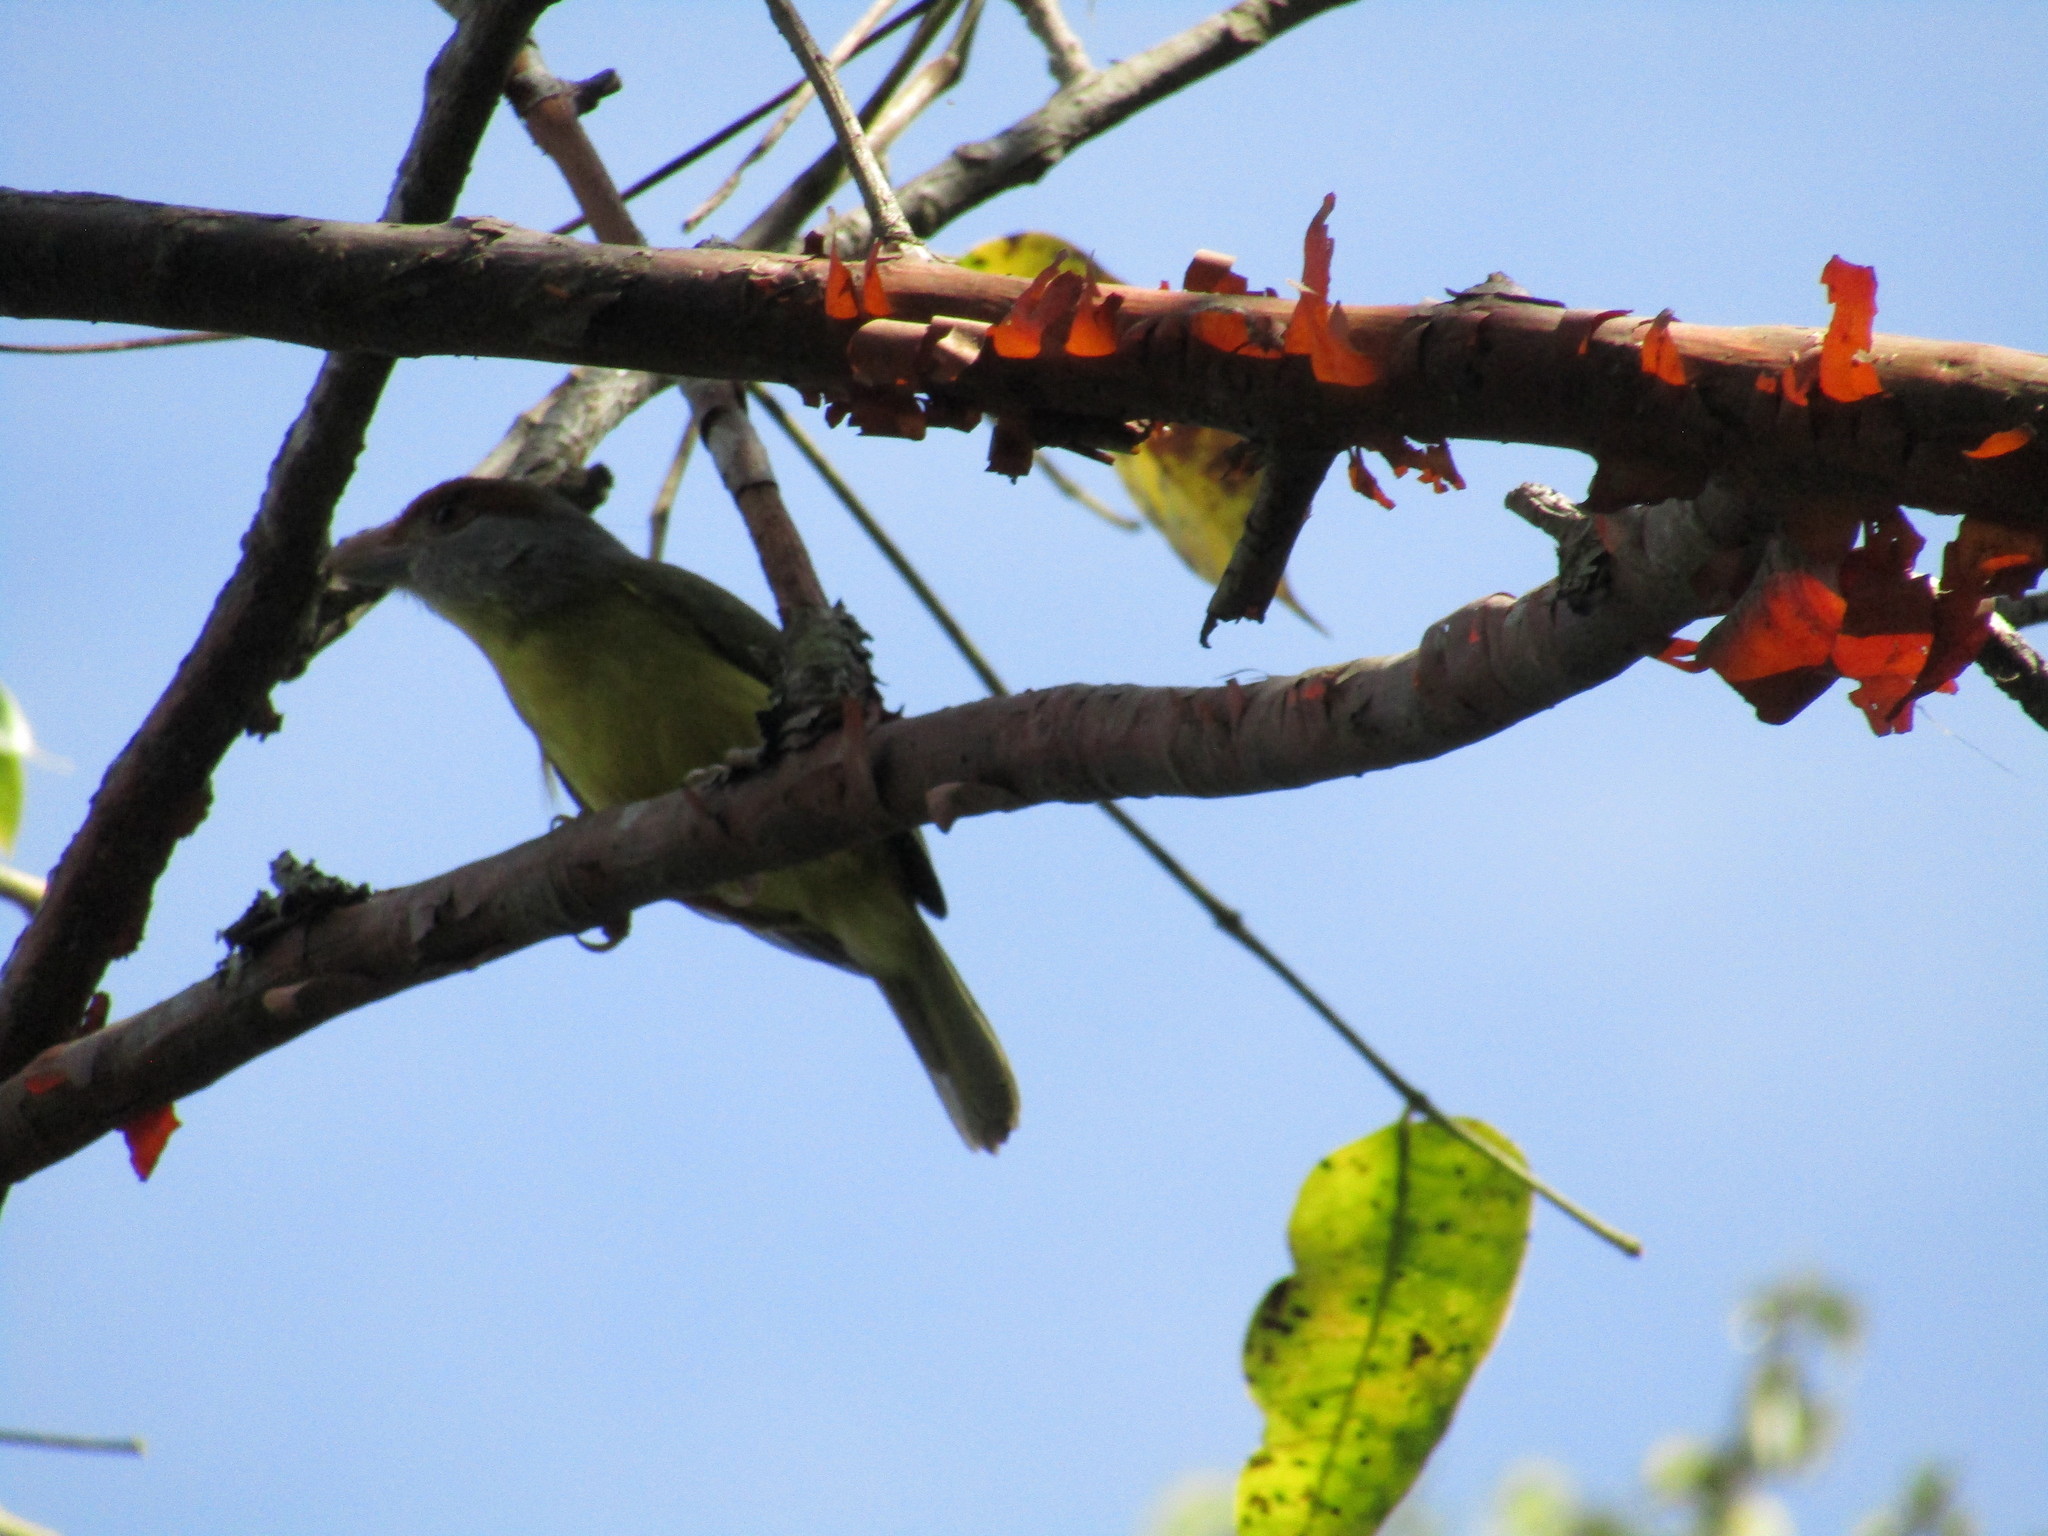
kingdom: Animalia
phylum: Chordata
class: Aves
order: Passeriformes
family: Vireonidae
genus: Cyclarhis
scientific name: Cyclarhis gujanensis
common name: Rufous-browed peppershrike
